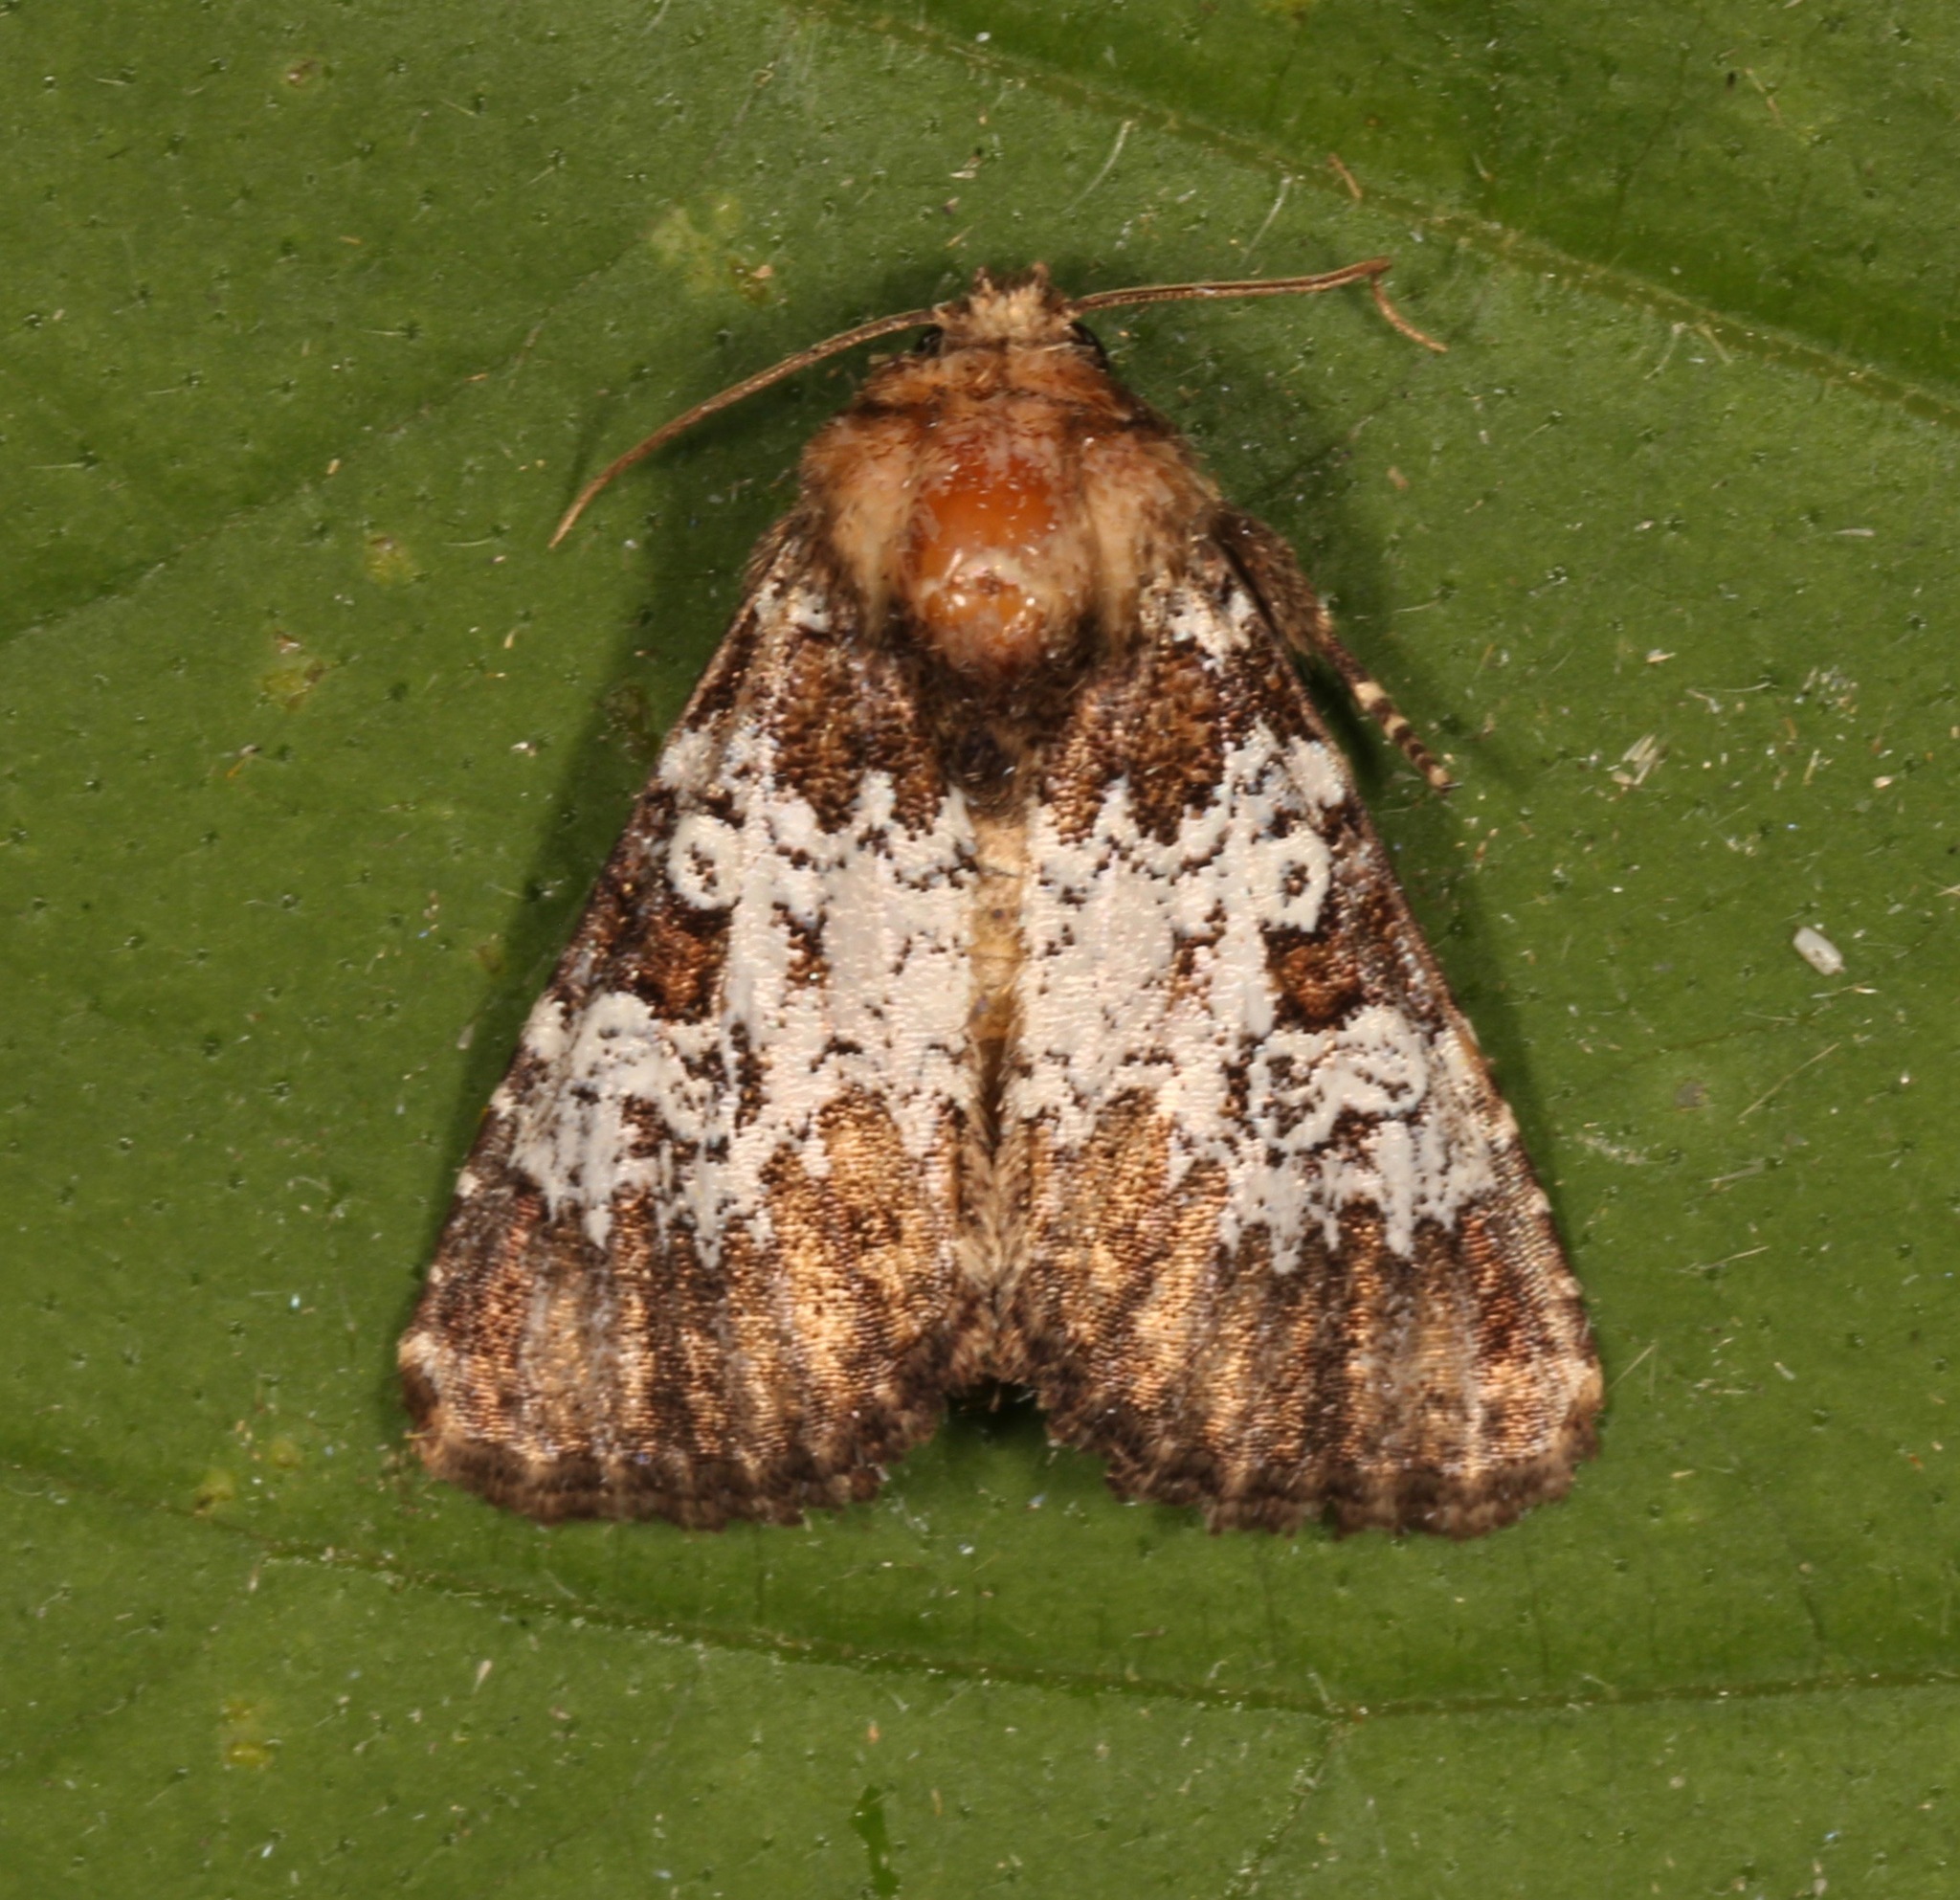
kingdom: Animalia
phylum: Arthropoda
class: Insecta
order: Lepidoptera
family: Noctuidae
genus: Euamiana
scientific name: Euamiana contrasta
